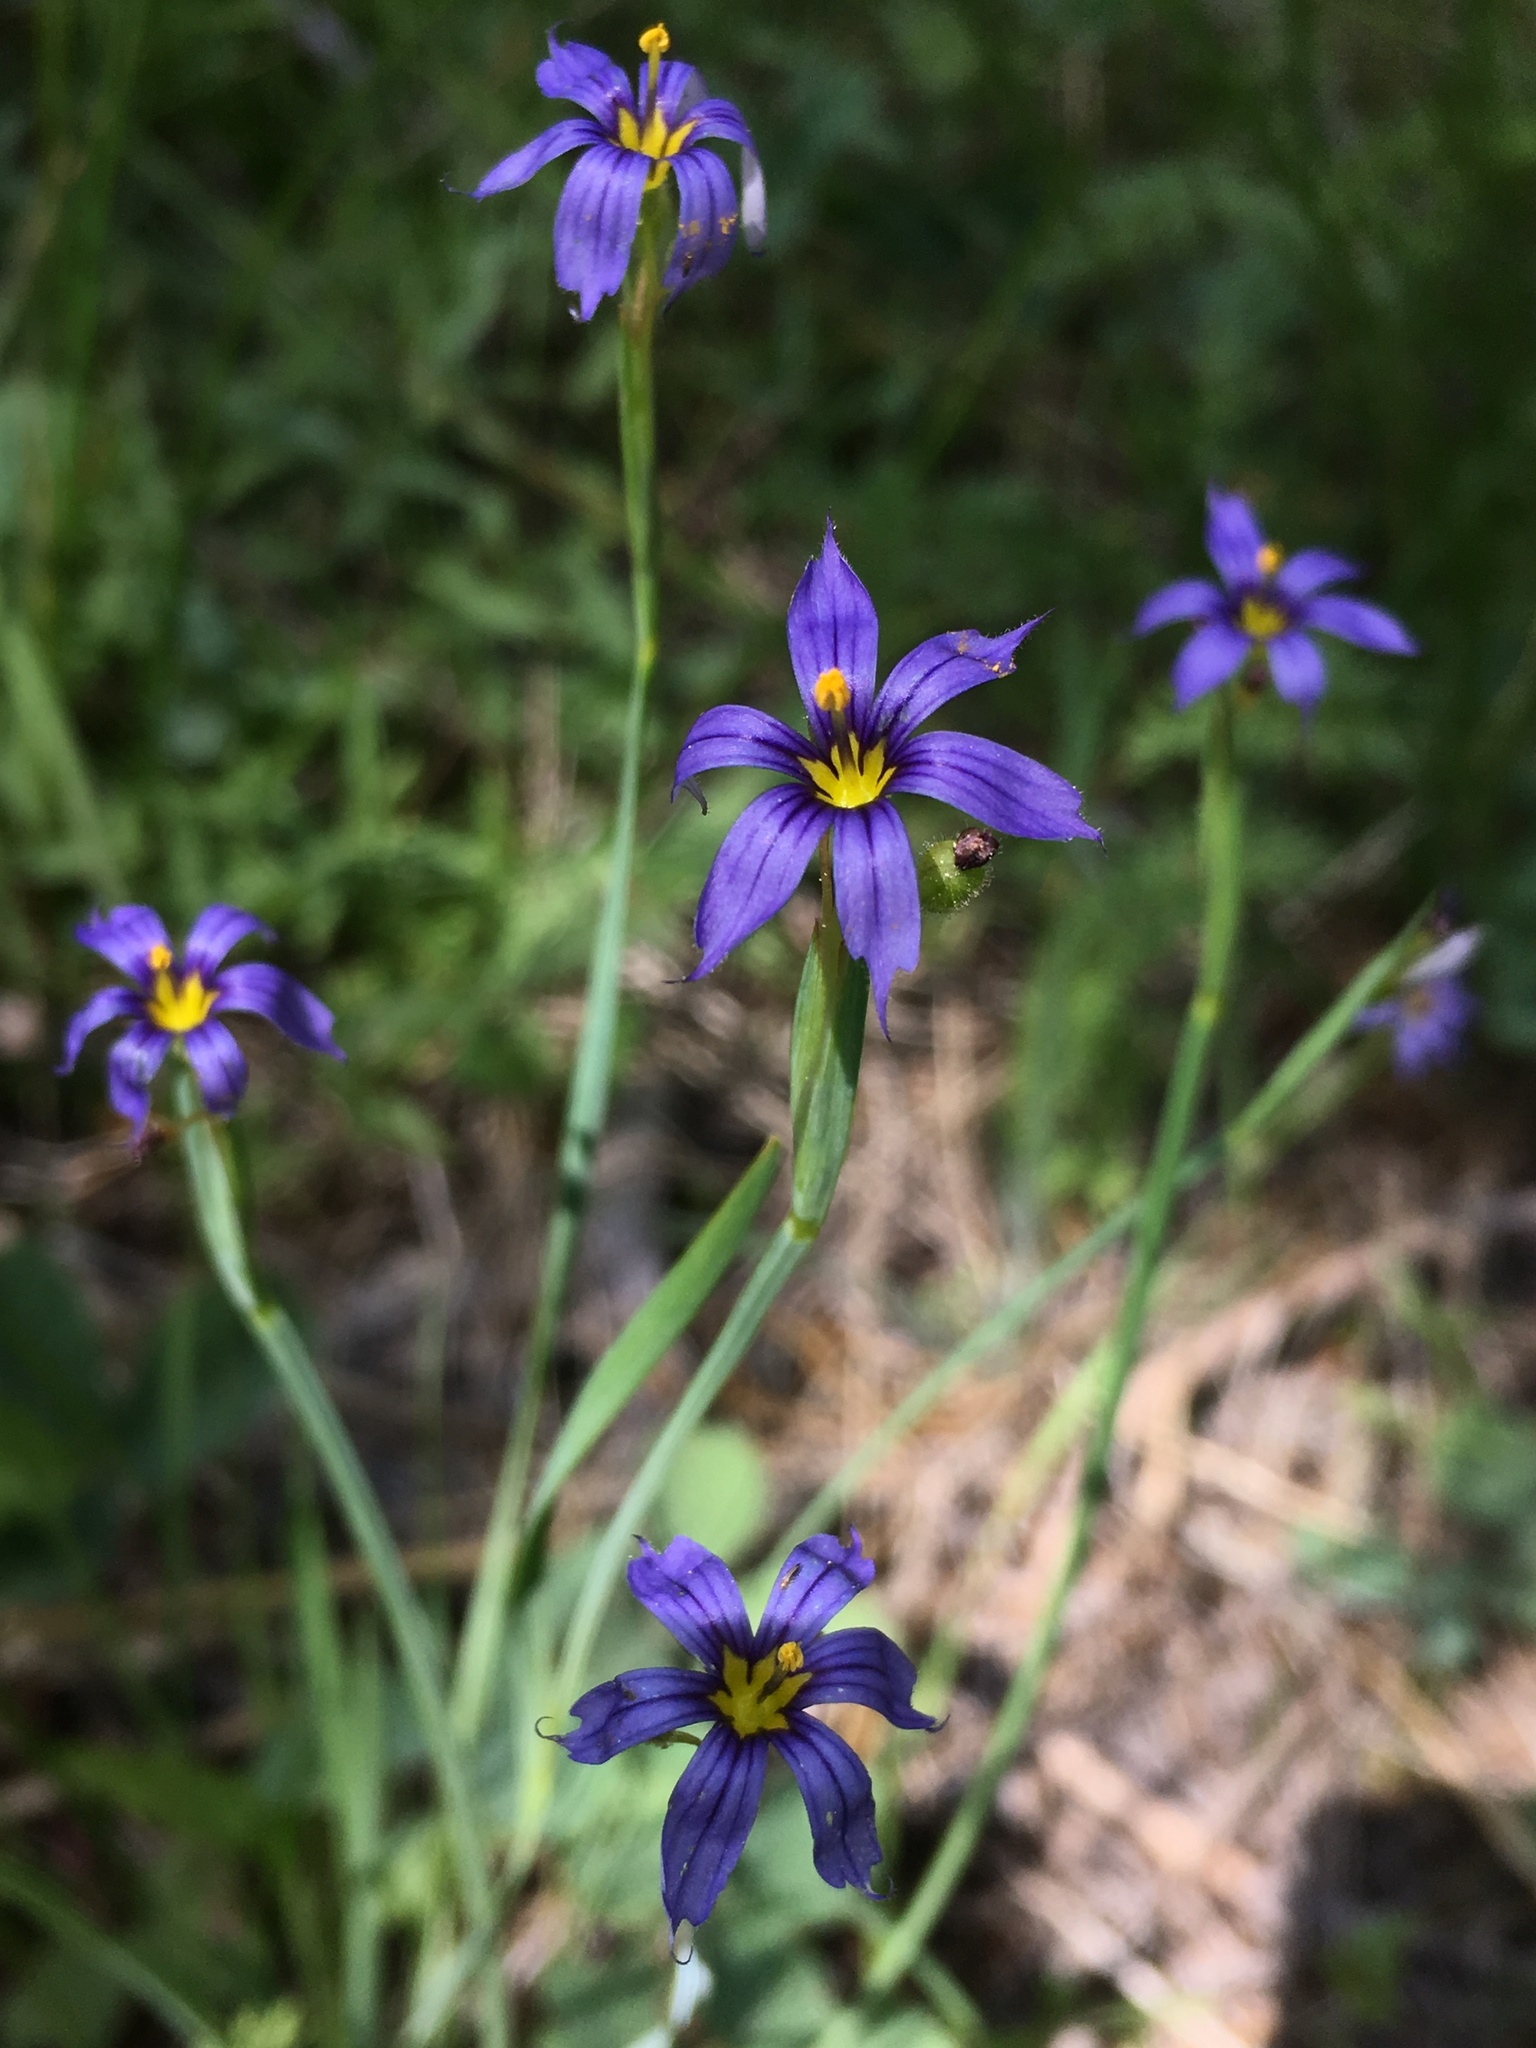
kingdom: Plantae
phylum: Tracheophyta
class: Liliopsida
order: Asparagales
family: Iridaceae
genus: Sisyrinchium
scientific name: Sisyrinchium bellum
